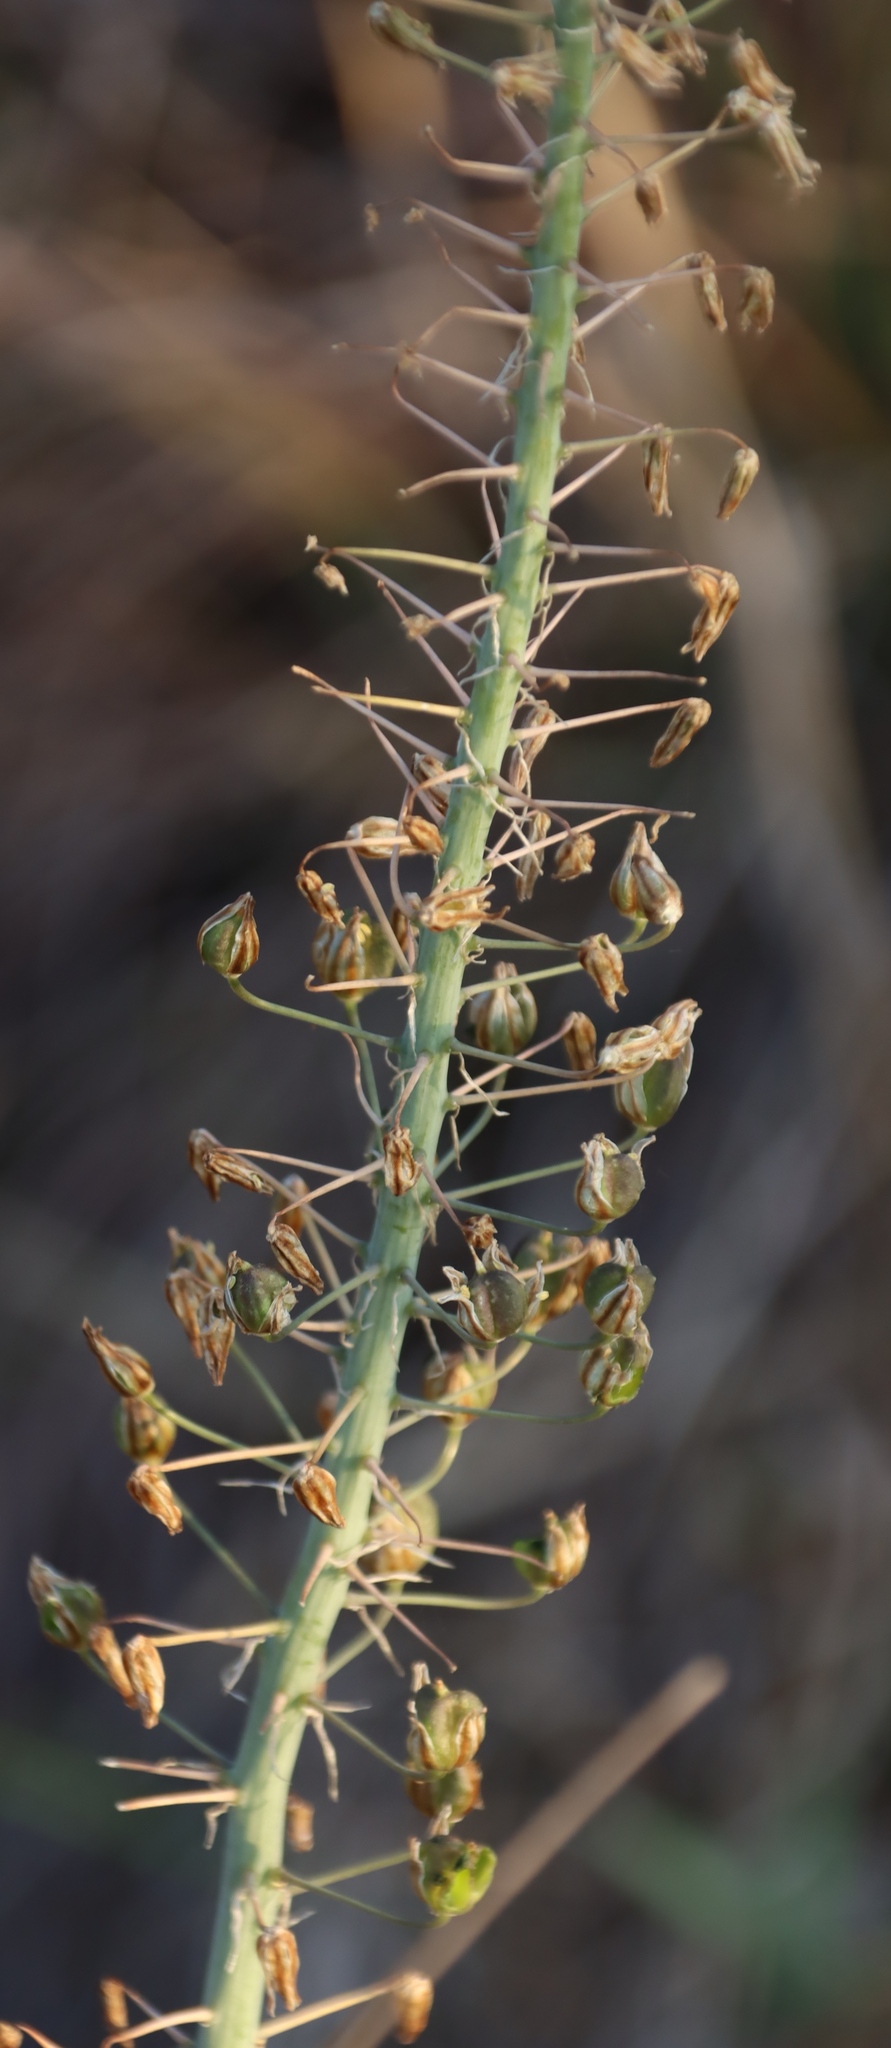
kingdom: Plantae
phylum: Tracheophyta
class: Liliopsida
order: Asparagales
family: Asparagaceae
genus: Drimia
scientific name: Drimia altissima
